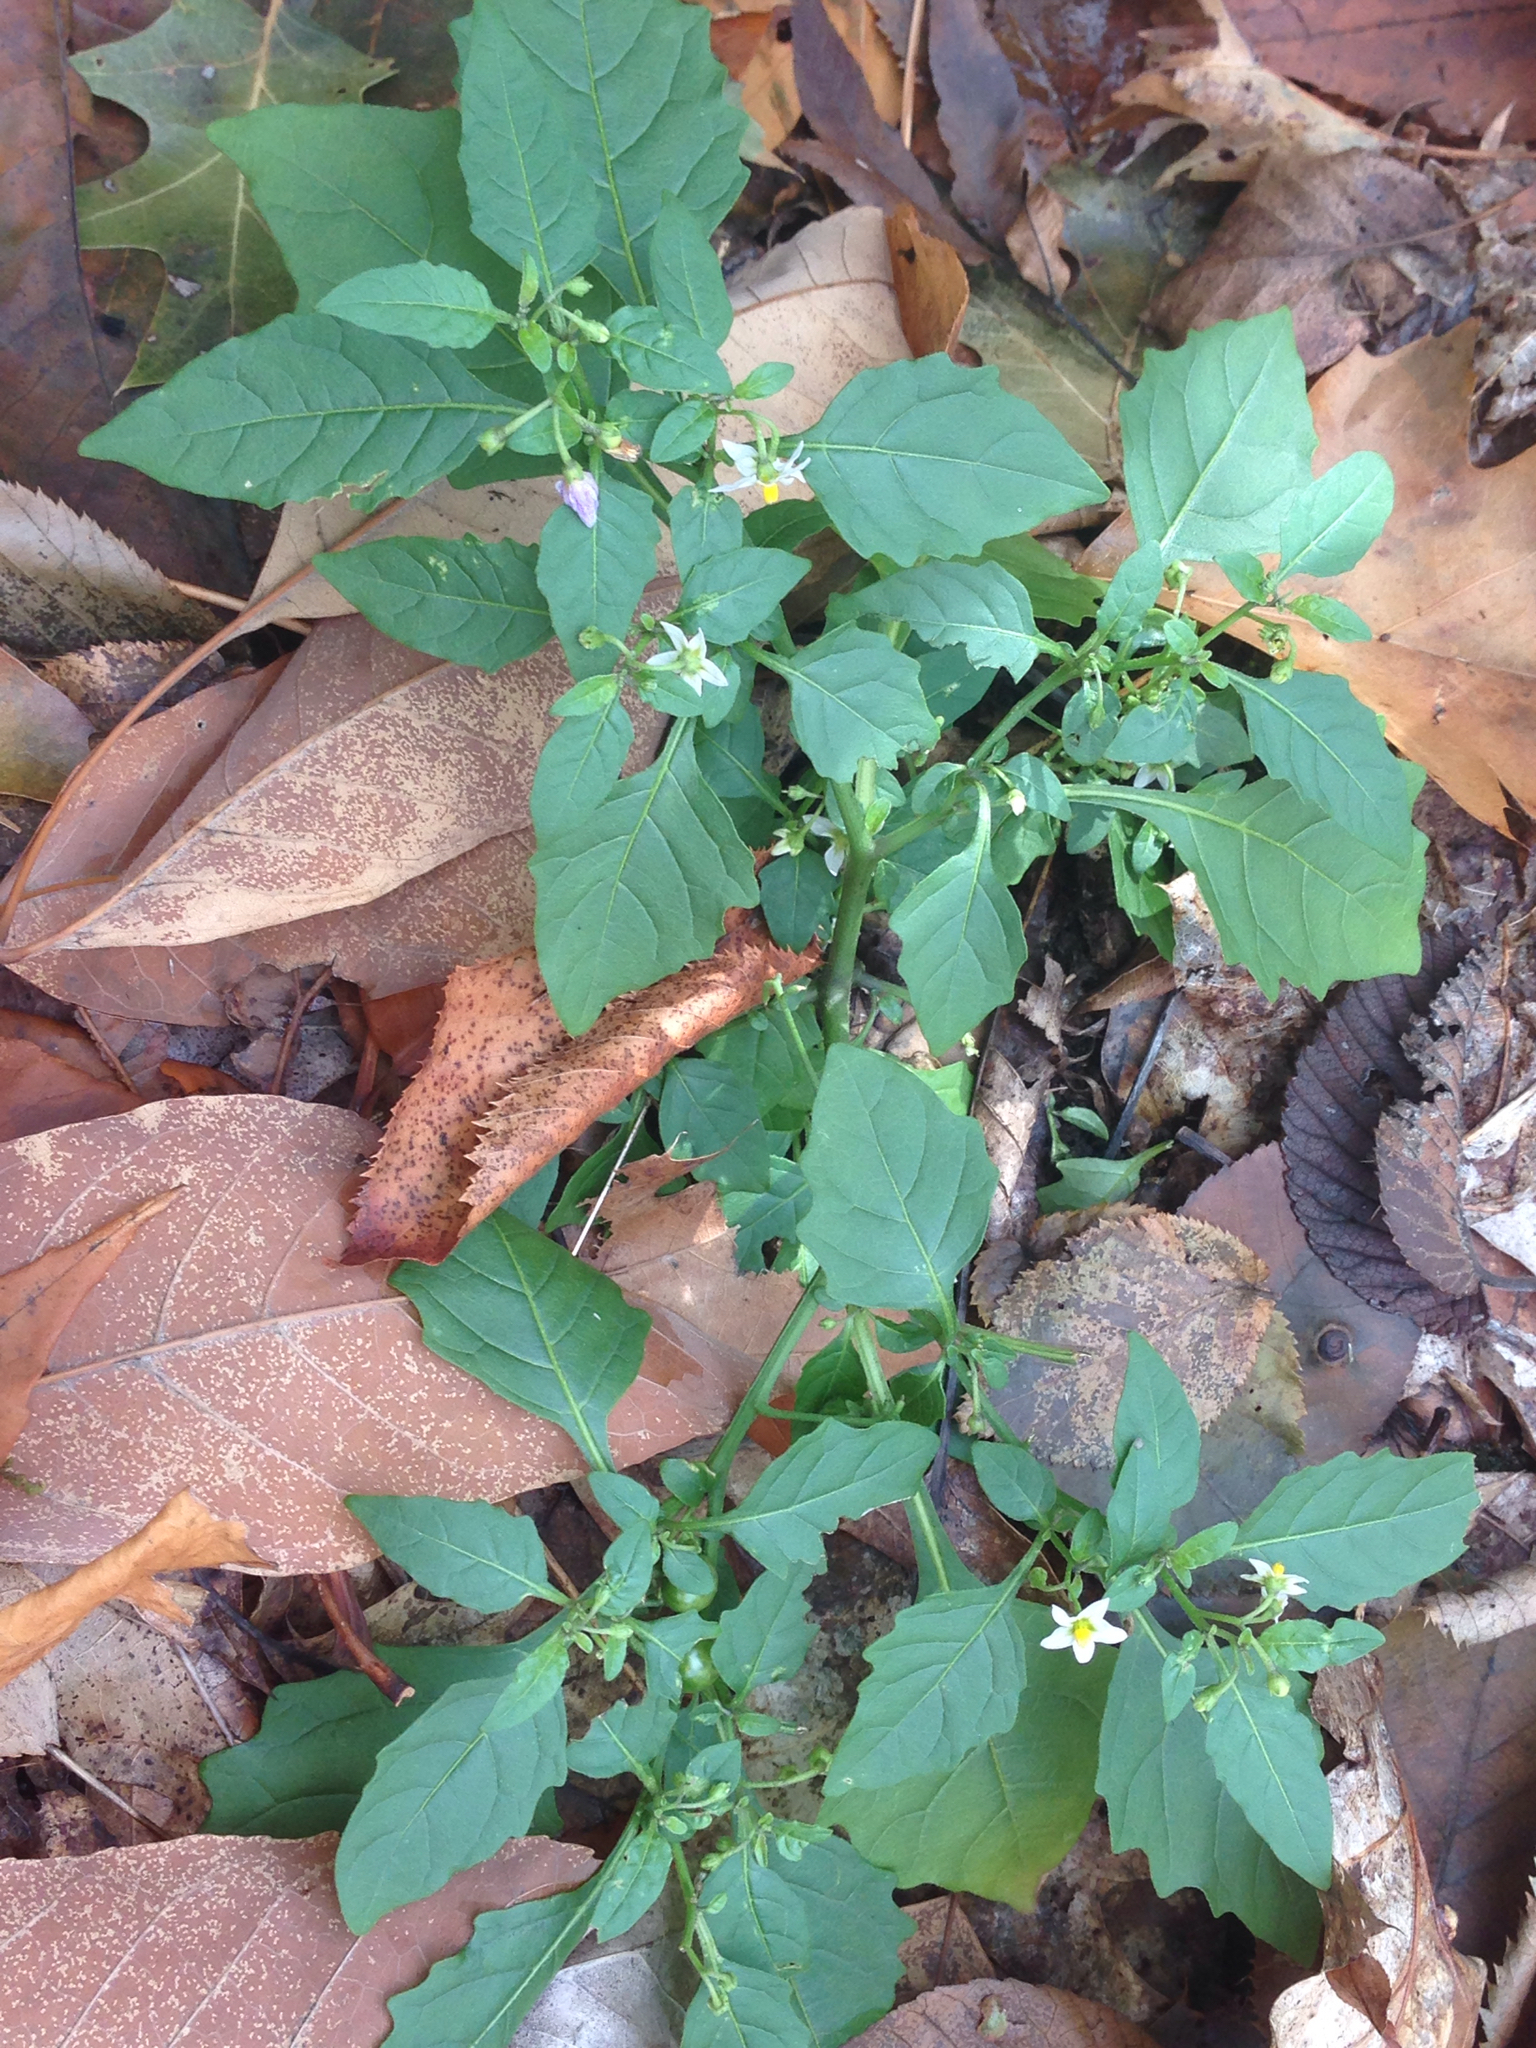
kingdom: Plantae
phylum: Tracheophyta
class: Magnoliopsida
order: Solanales
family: Solanaceae
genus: Solanum
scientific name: Solanum emulans
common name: Eastern black nightshade
